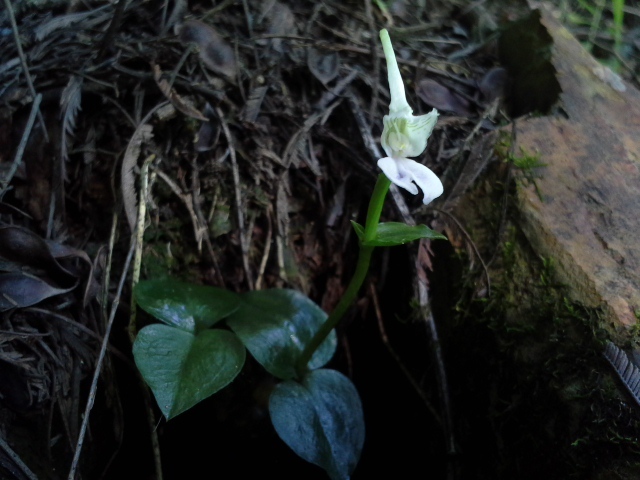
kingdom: Plantae
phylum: Tracheophyta
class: Liliopsida
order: Asparagales
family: Orchidaceae
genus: Disperis
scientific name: Disperis anthoceros
